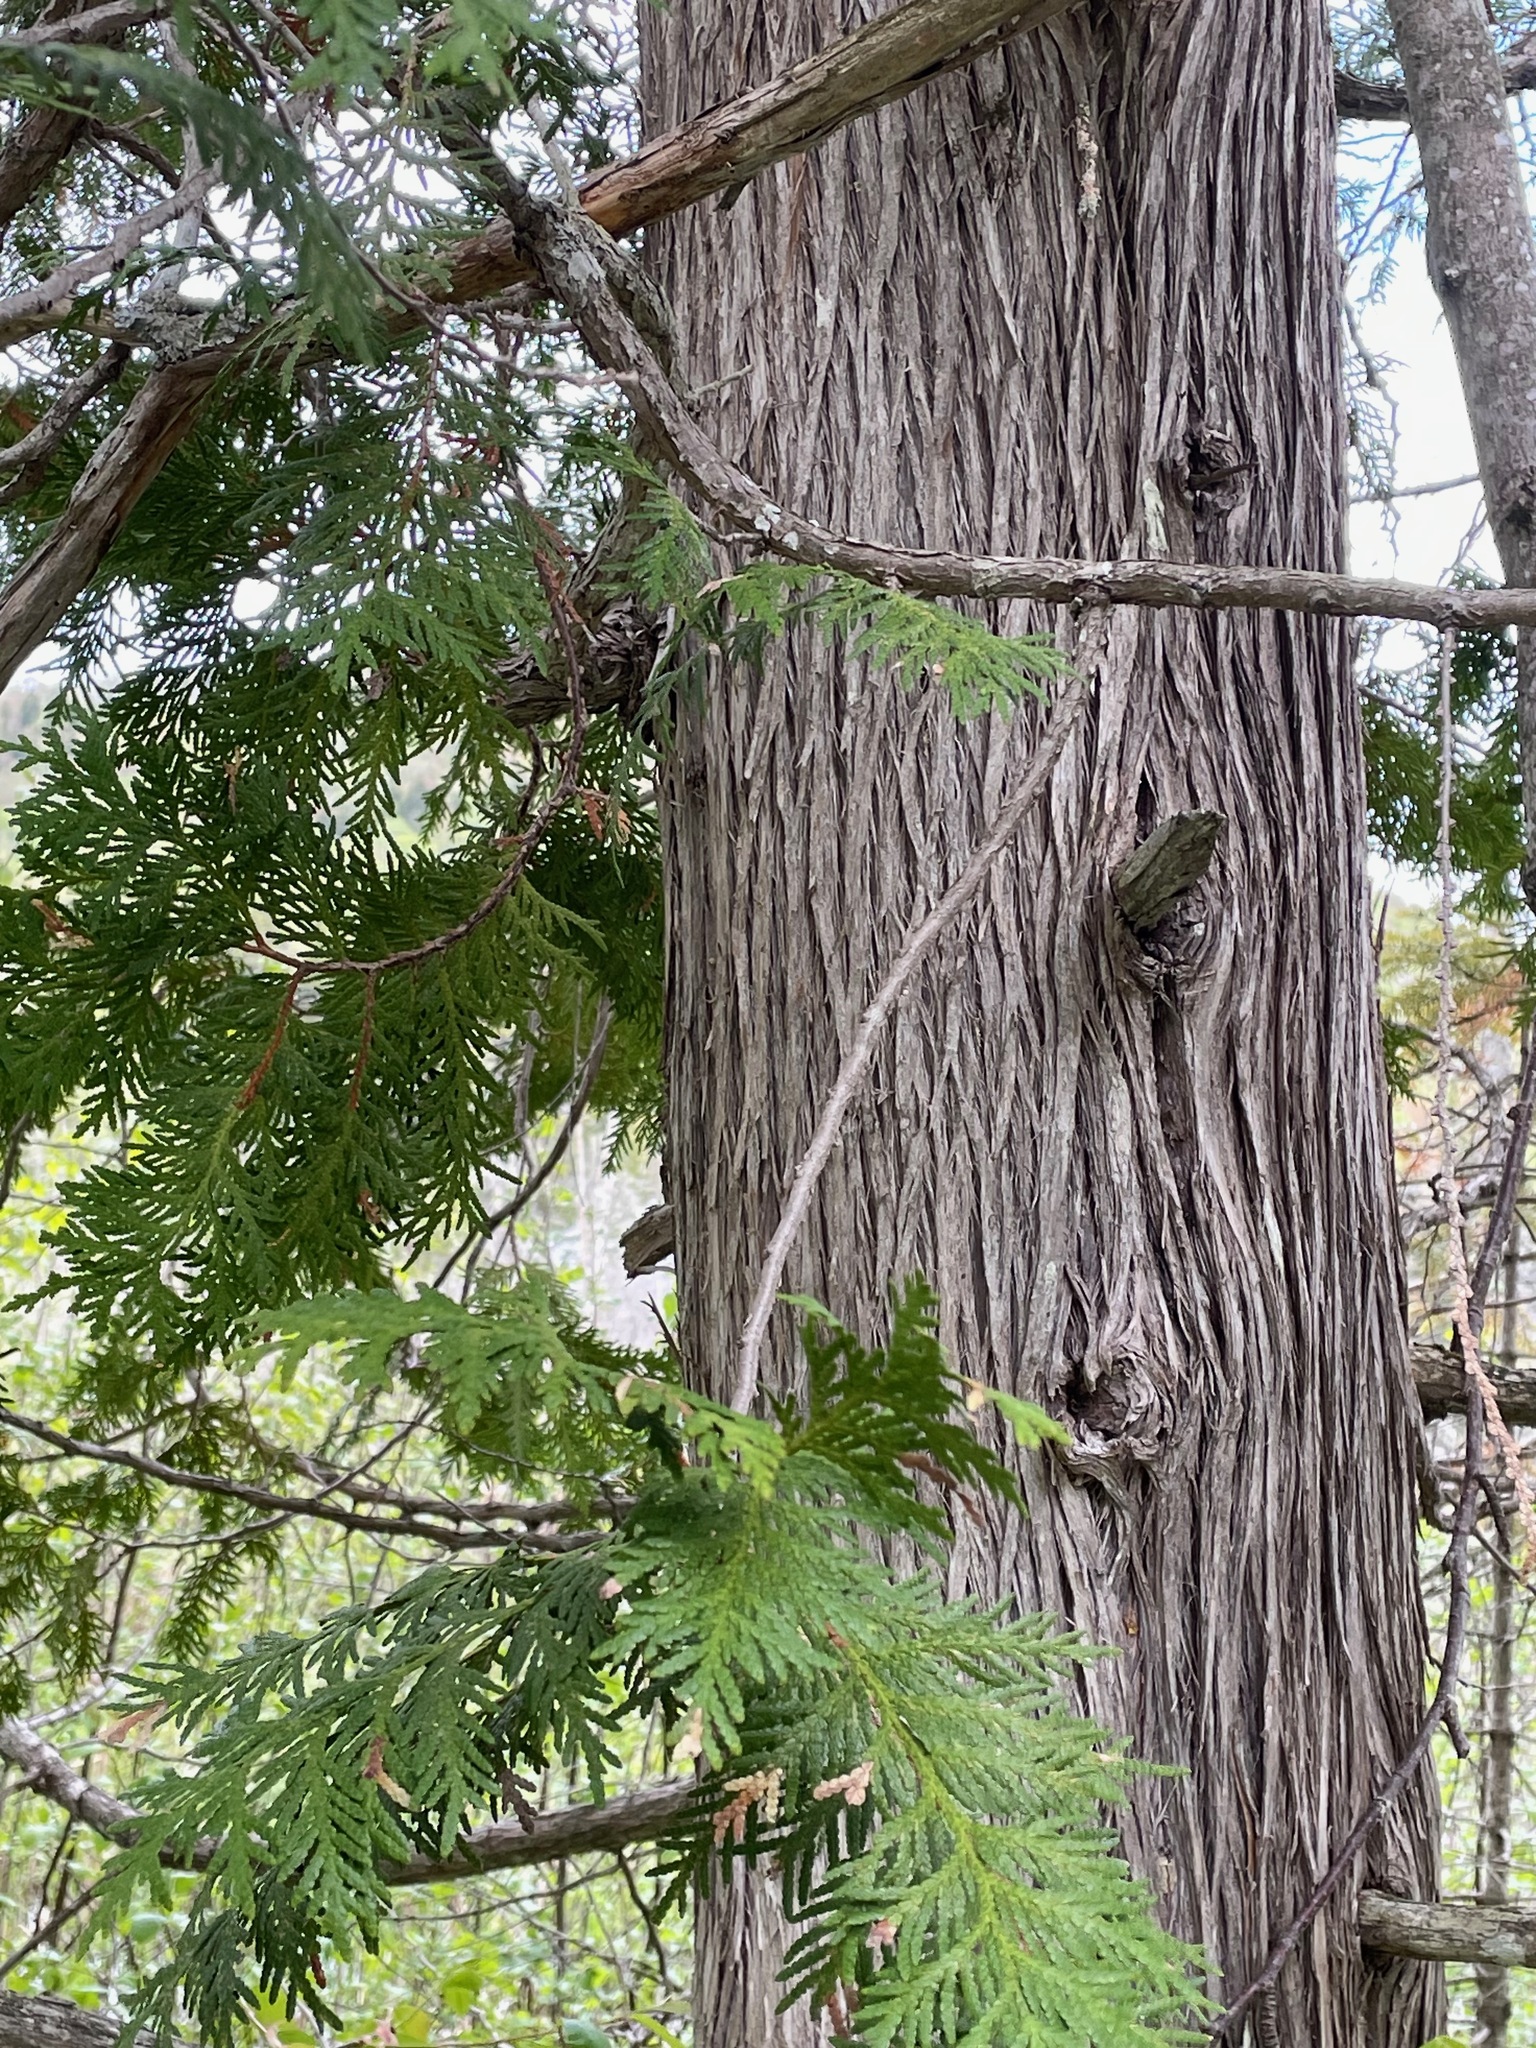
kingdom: Plantae
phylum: Tracheophyta
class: Pinopsida
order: Pinales
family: Cupressaceae
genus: Thuja
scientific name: Thuja occidentalis
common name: Northern white-cedar
